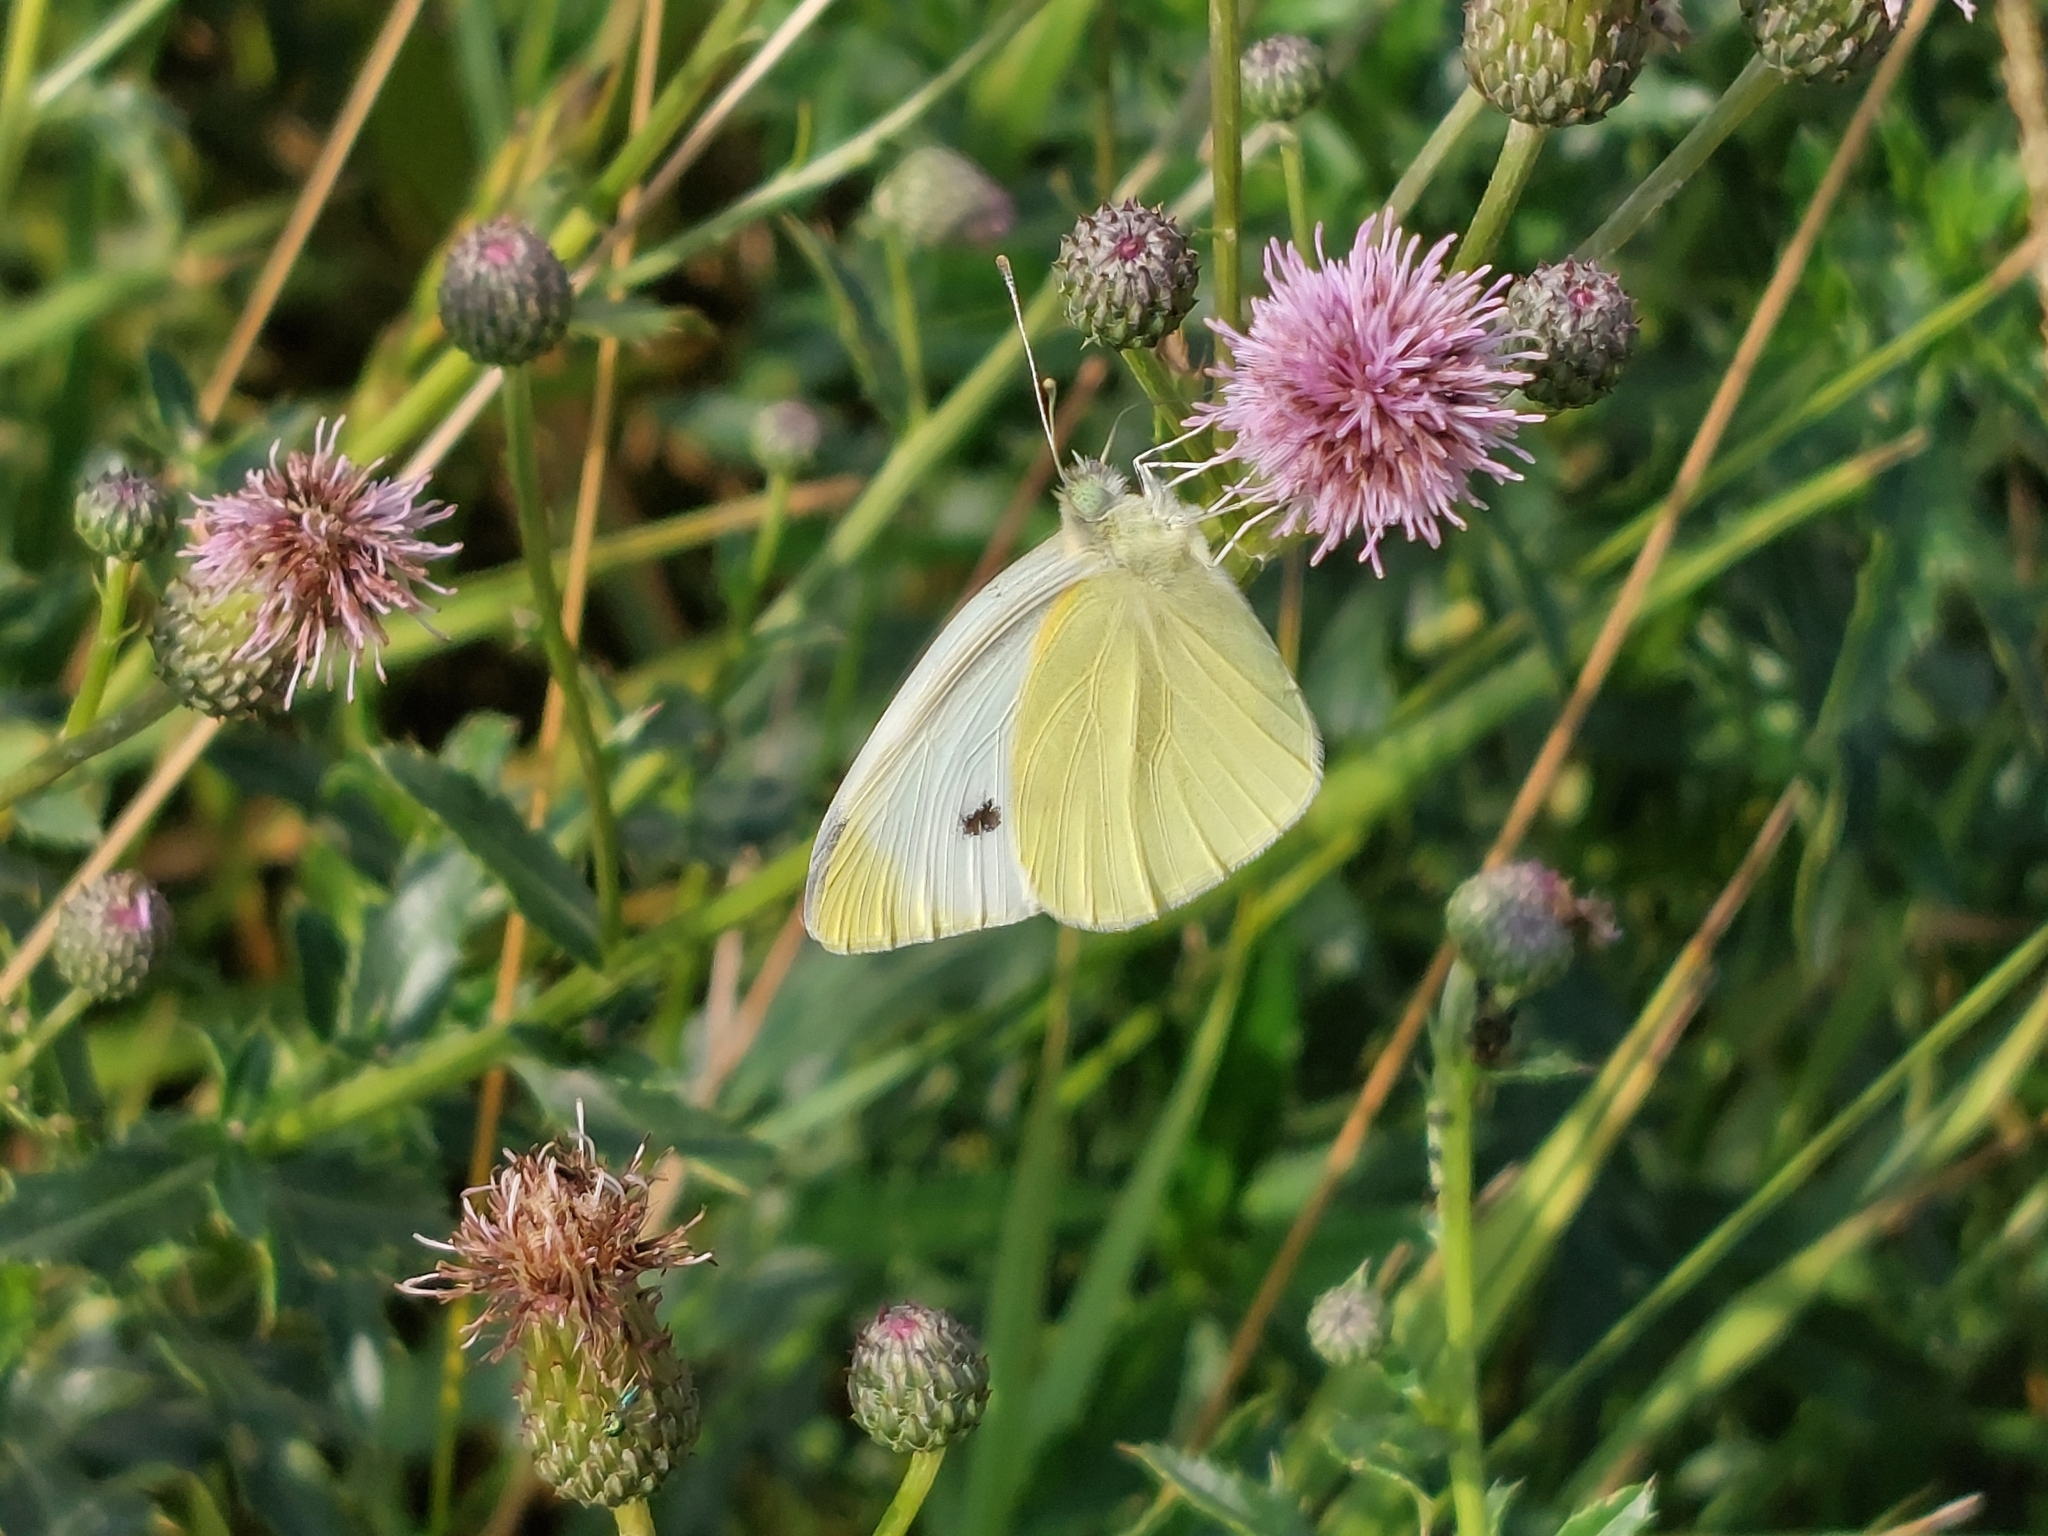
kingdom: Animalia
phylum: Arthropoda
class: Insecta
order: Lepidoptera
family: Pieridae
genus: Pieris
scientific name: Pieris rapae
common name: Small white
